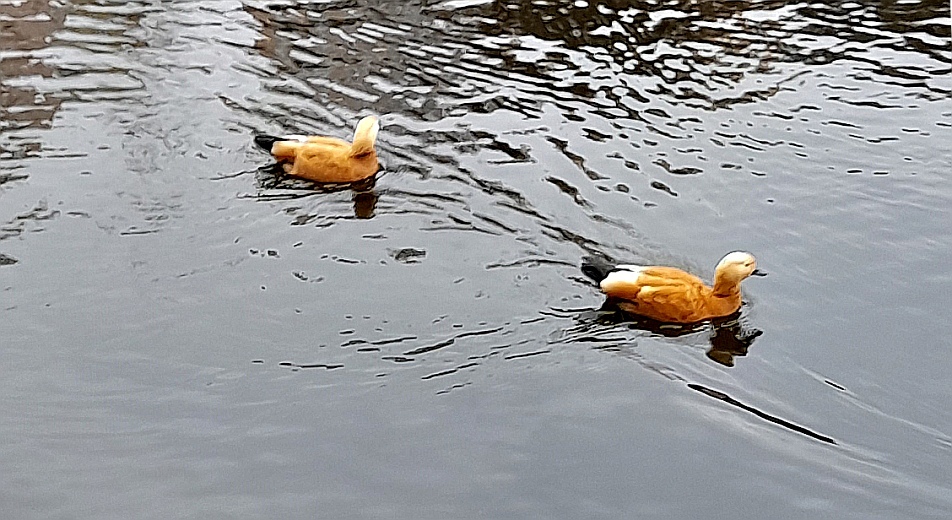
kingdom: Animalia
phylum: Chordata
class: Aves
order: Anseriformes
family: Anatidae
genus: Tadorna
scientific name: Tadorna ferruginea
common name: Ruddy shelduck
